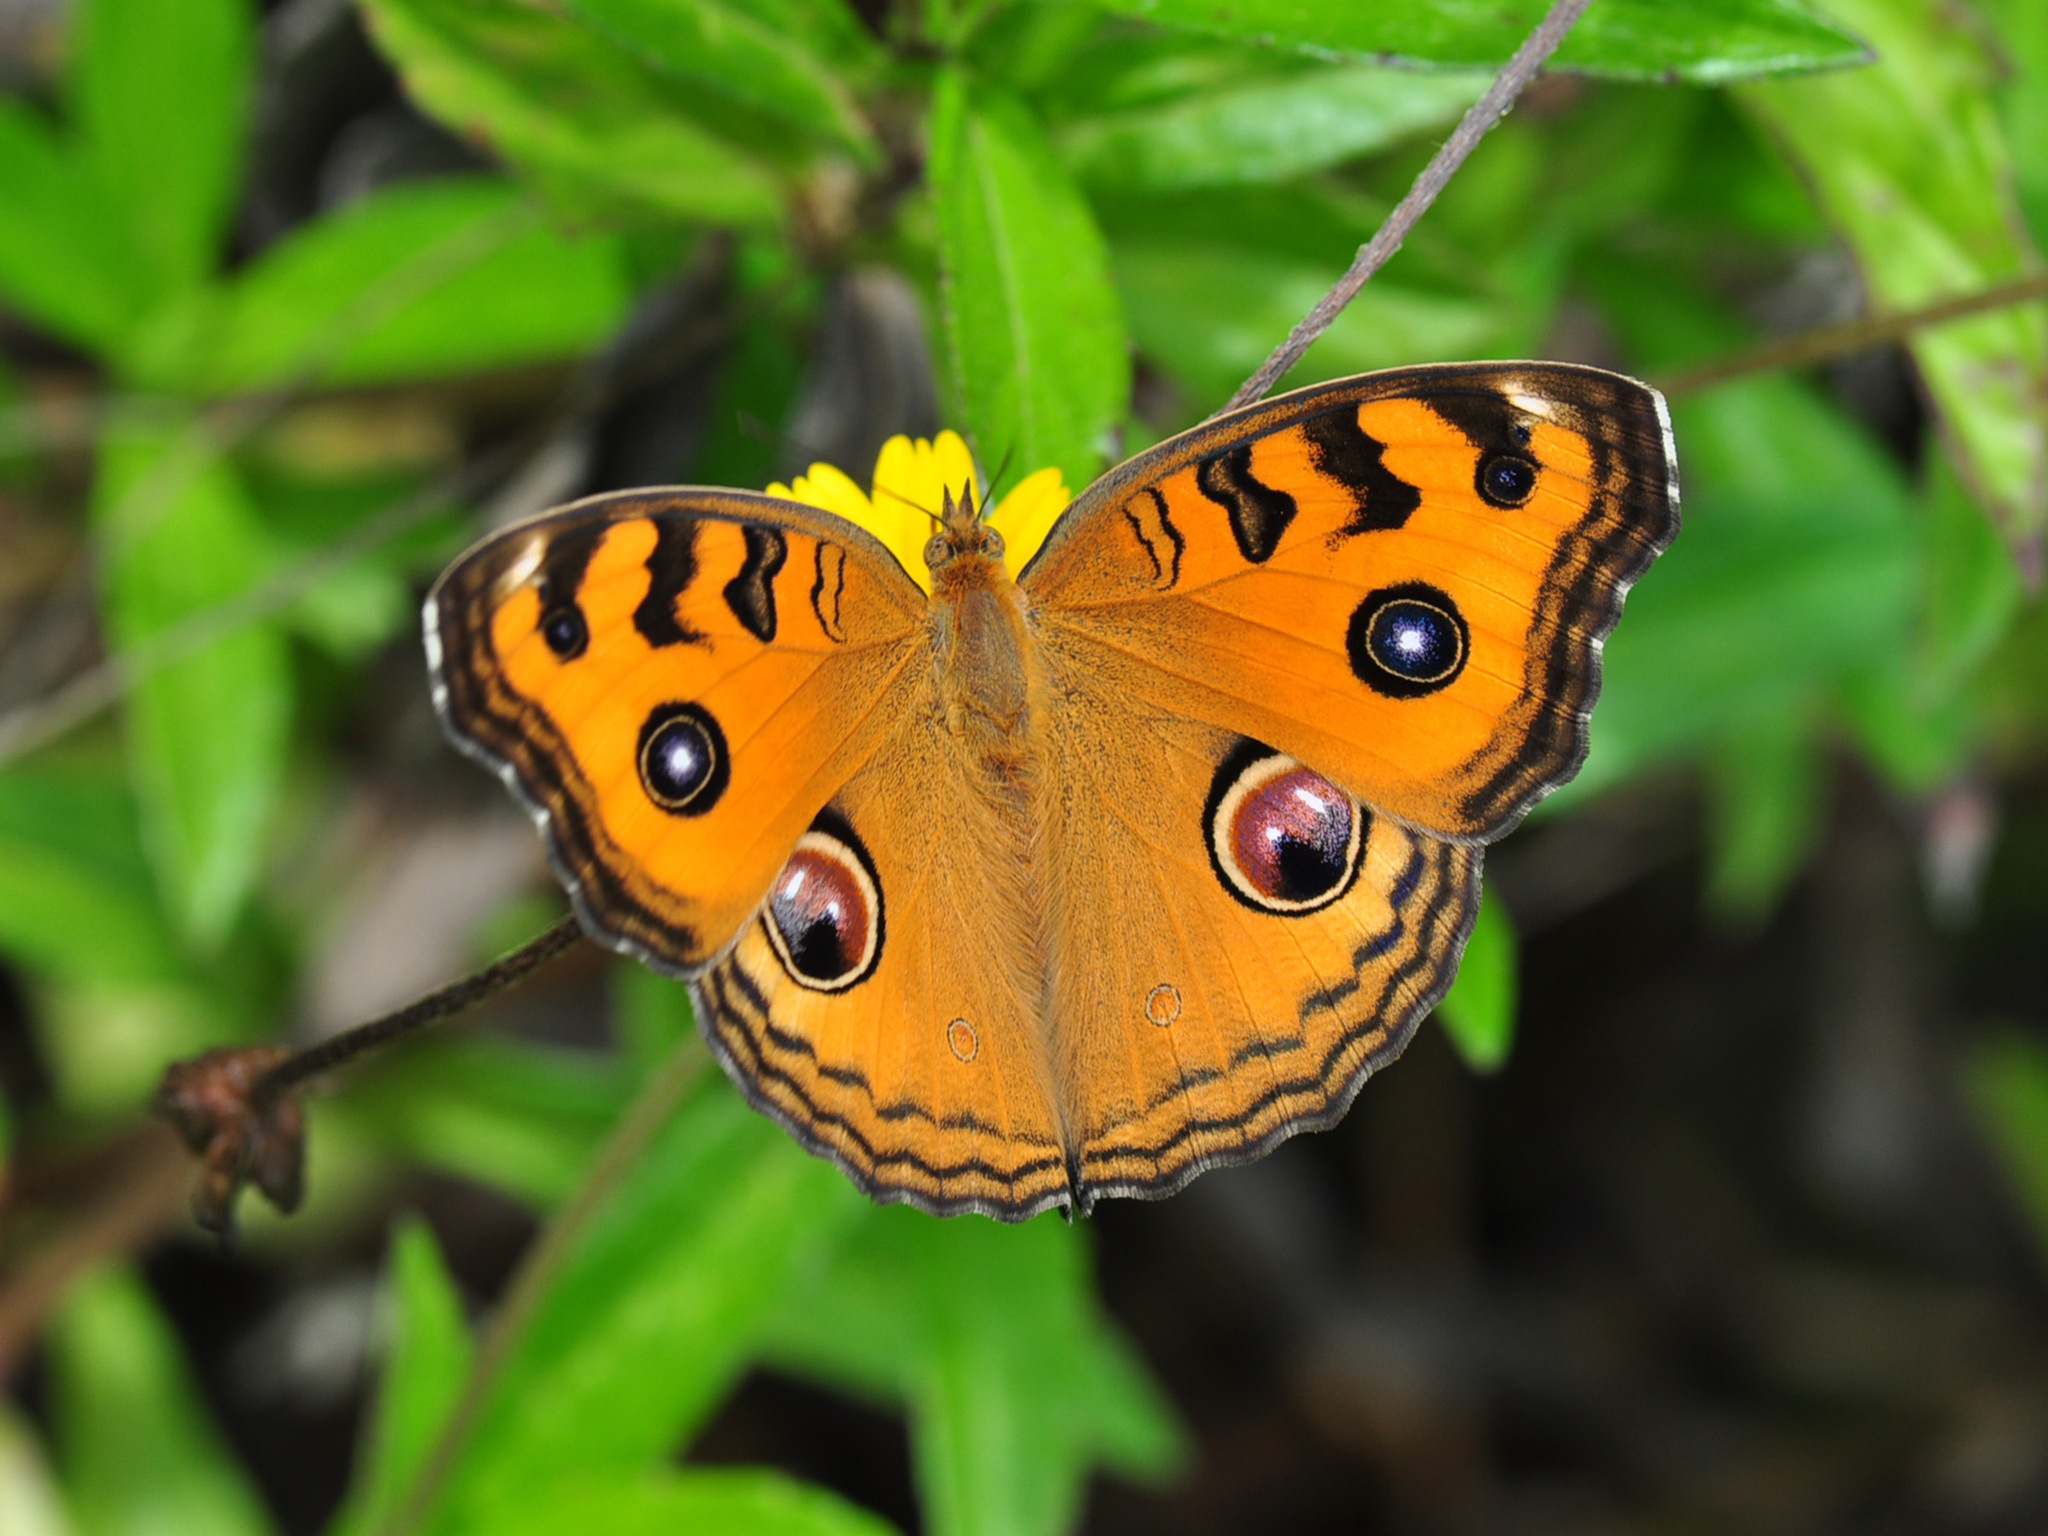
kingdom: Animalia
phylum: Arthropoda
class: Insecta
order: Lepidoptera
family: Nymphalidae
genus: Junonia
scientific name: Junonia almana
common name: Peacock pansy
